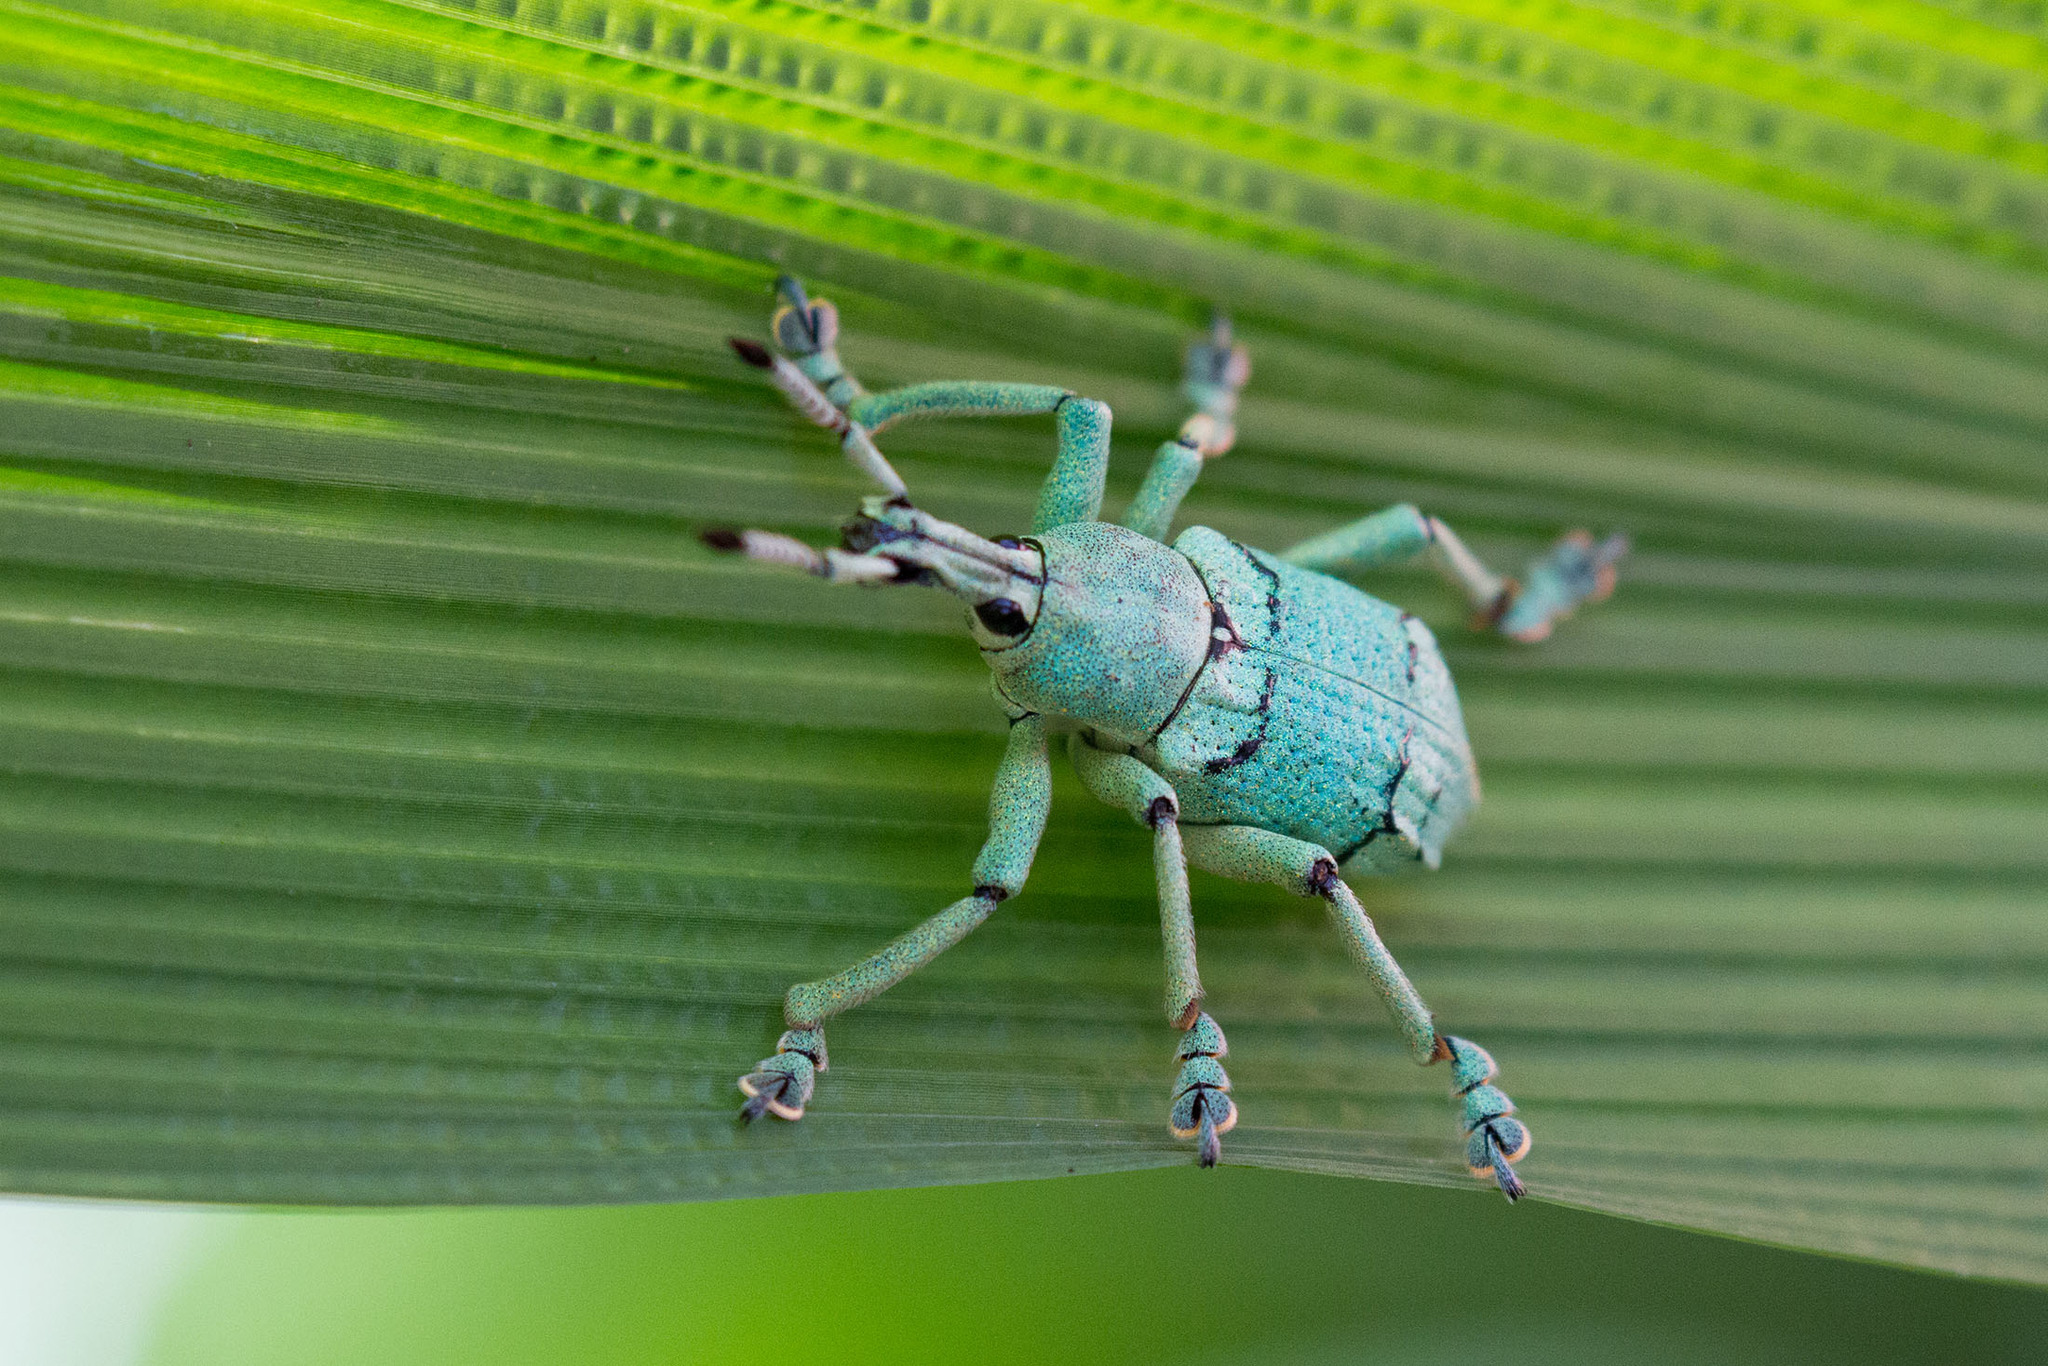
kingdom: Animalia
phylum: Arthropoda
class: Insecta
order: Coleoptera
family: Curculionidae
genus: Eupholus
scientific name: Eupholus schoenherri
